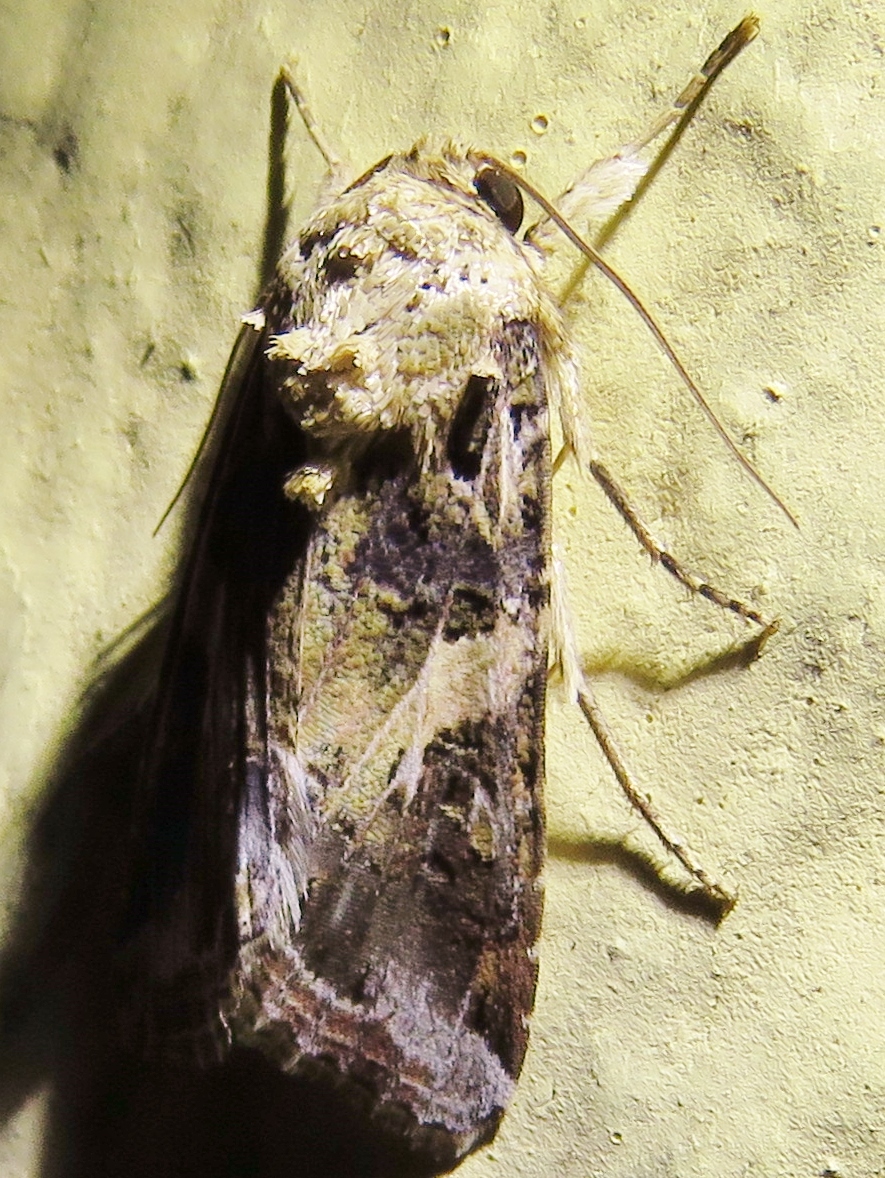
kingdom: Animalia
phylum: Arthropoda
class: Insecta
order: Lepidoptera
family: Noctuidae
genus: Spodoptera
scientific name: Spodoptera ornithogalli
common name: Yellow-striped armyworm
